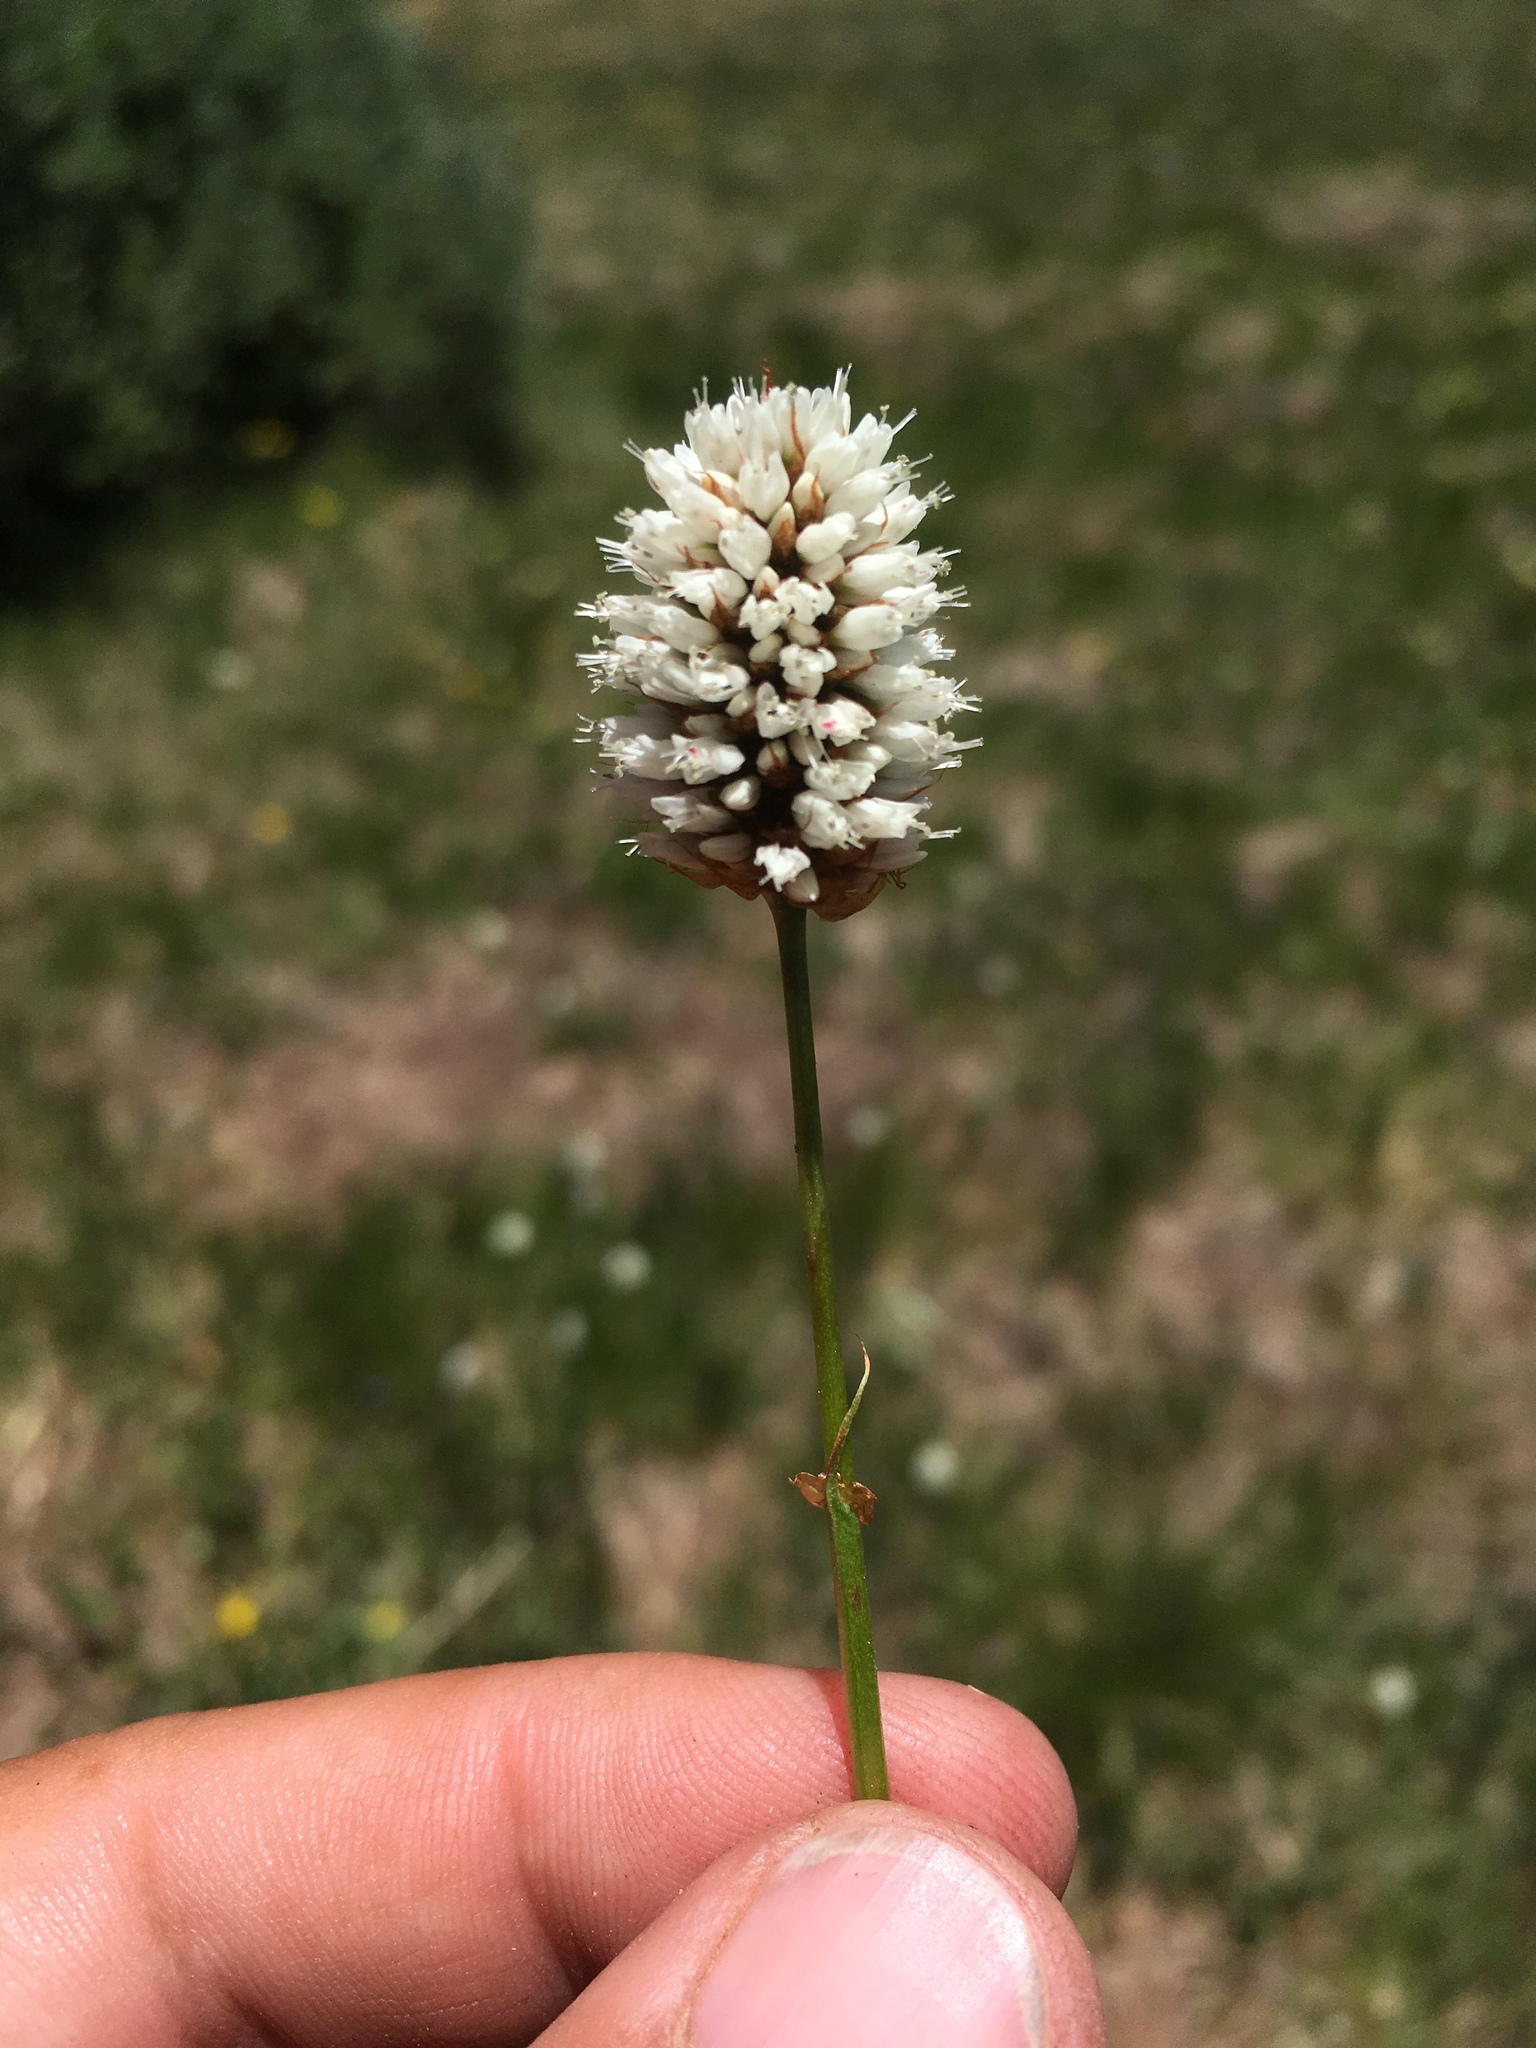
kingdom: Plantae
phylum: Tracheophyta
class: Magnoliopsida
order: Caryophyllales
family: Polygonaceae
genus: Bistorta
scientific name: Bistorta bistortoides
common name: American bistort
